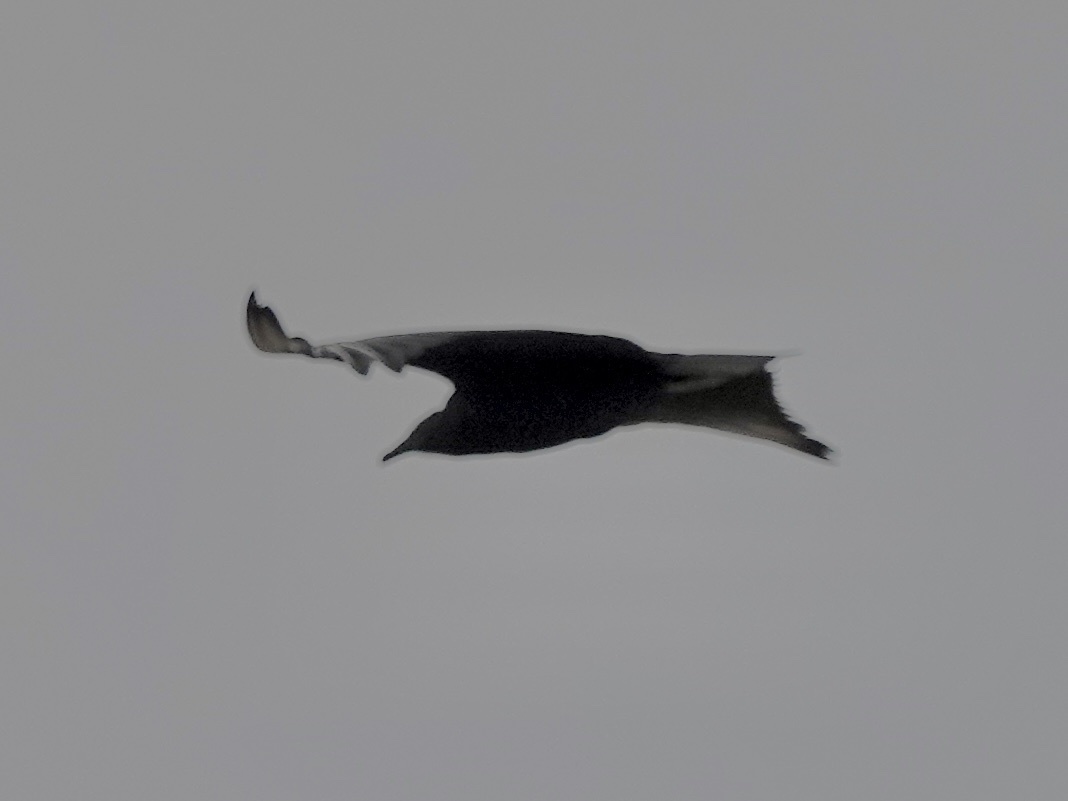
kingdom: Animalia
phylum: Chordata
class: Aves
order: Accipitriformes
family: Cathartidae
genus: Coragyps
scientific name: Coragyps atratus
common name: Black vulture
